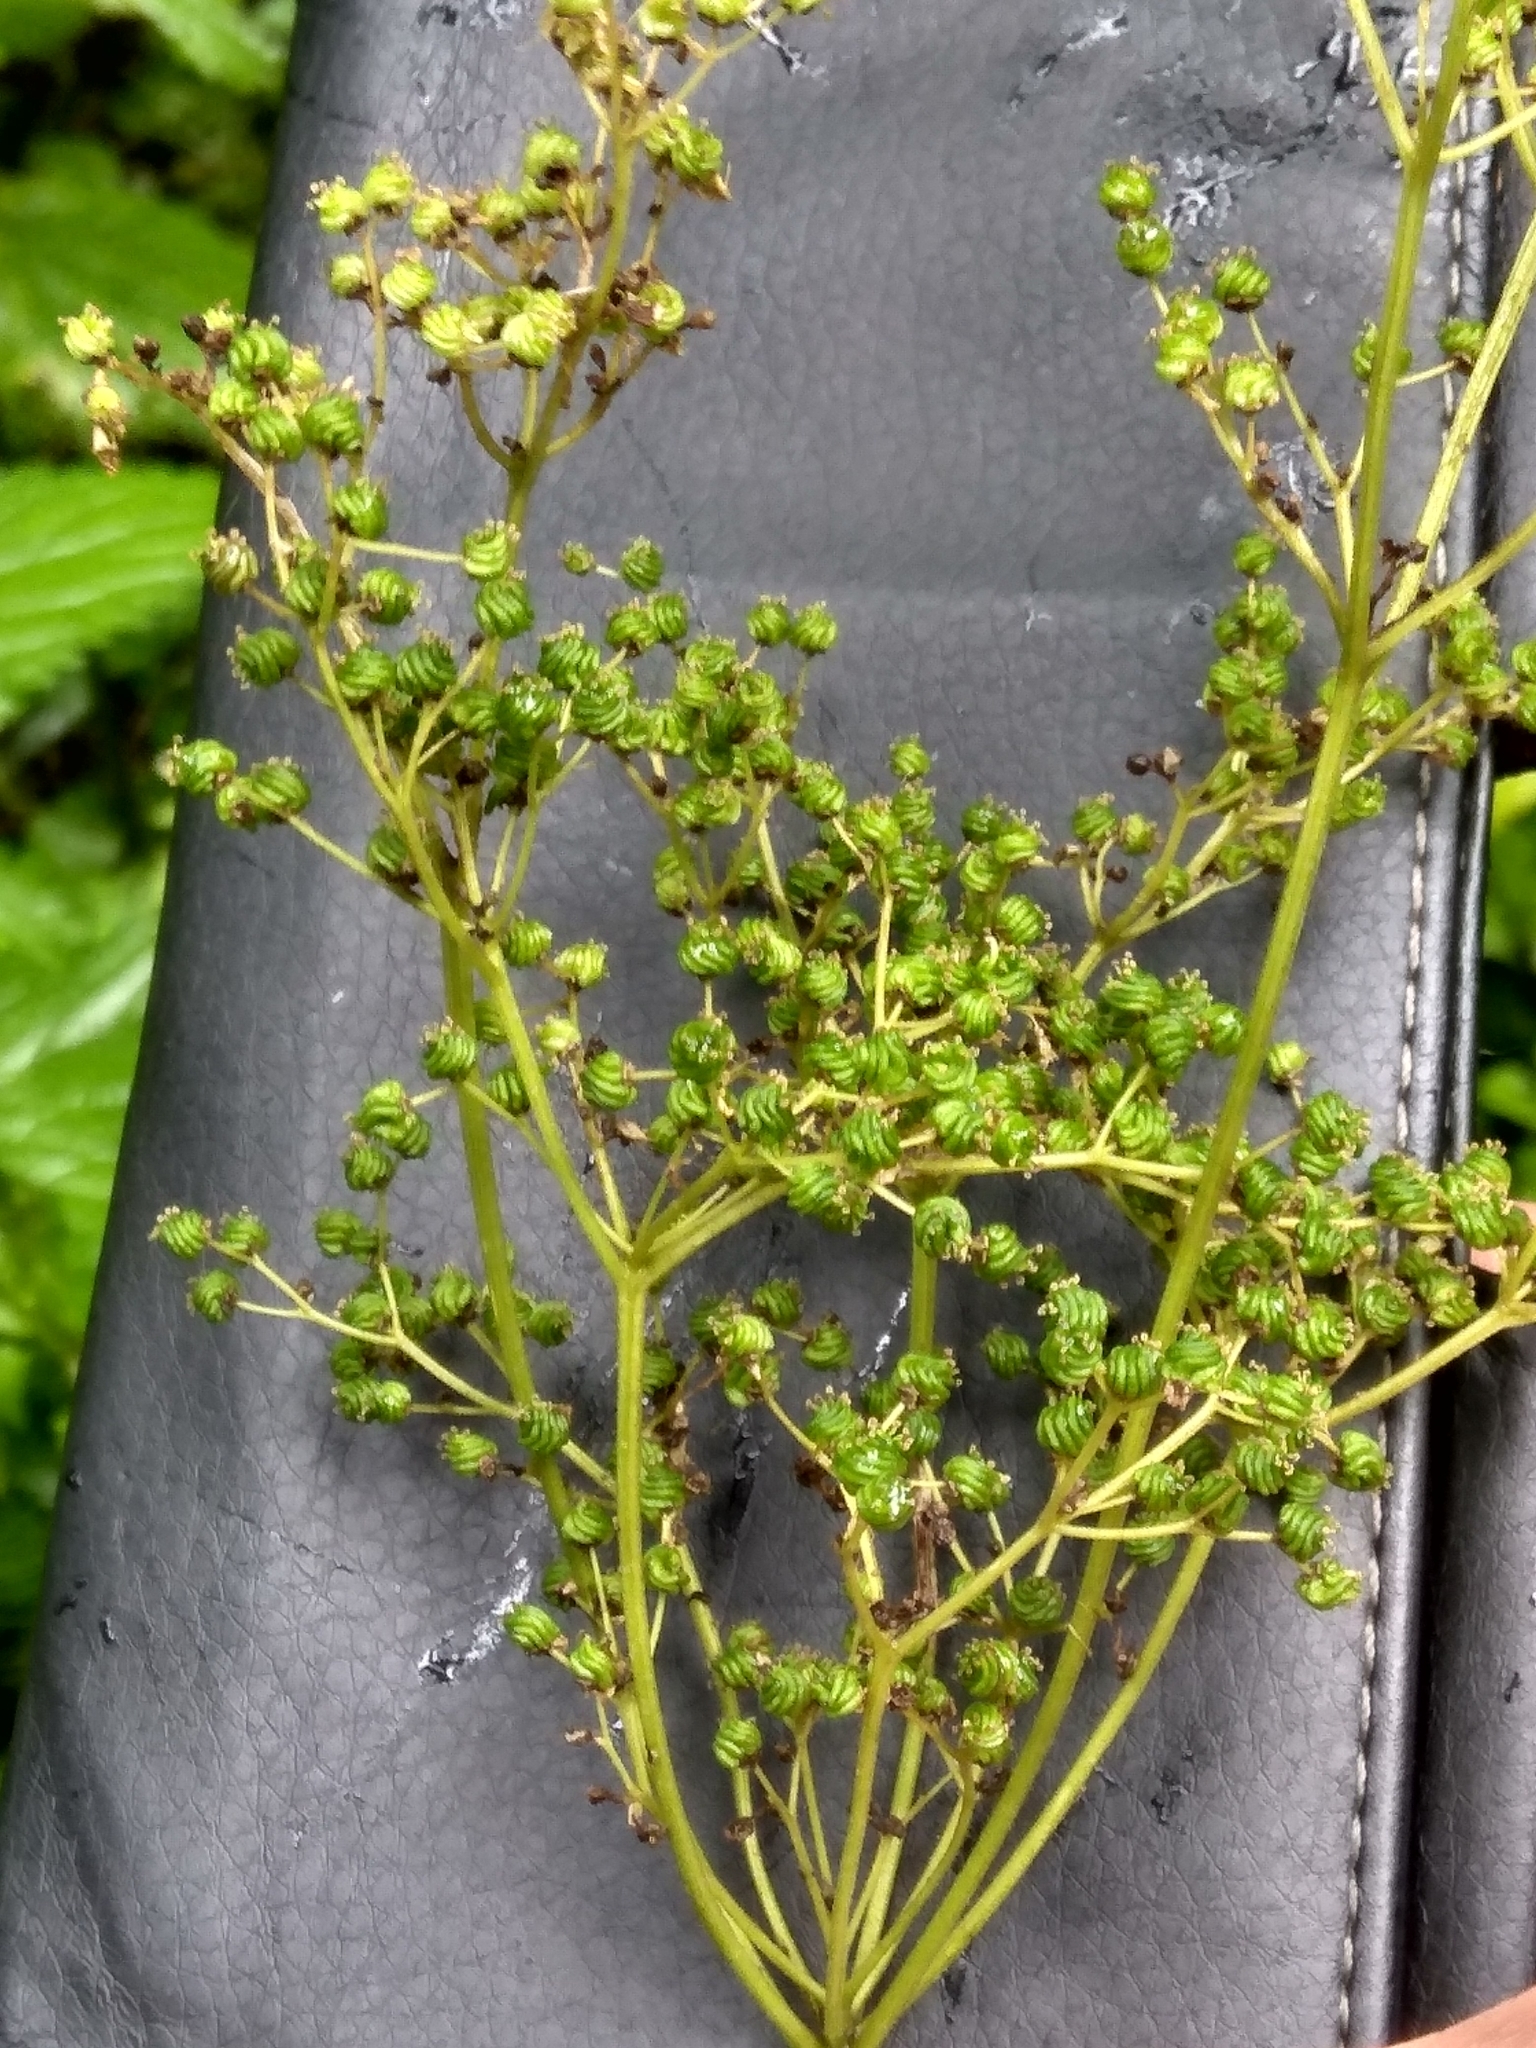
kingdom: Plantae
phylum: Tracheophyta
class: Magnoliopsida
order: Rosales
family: Rosaceae
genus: Filipendula
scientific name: Filipendula ulmaria
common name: Meadowsweet
